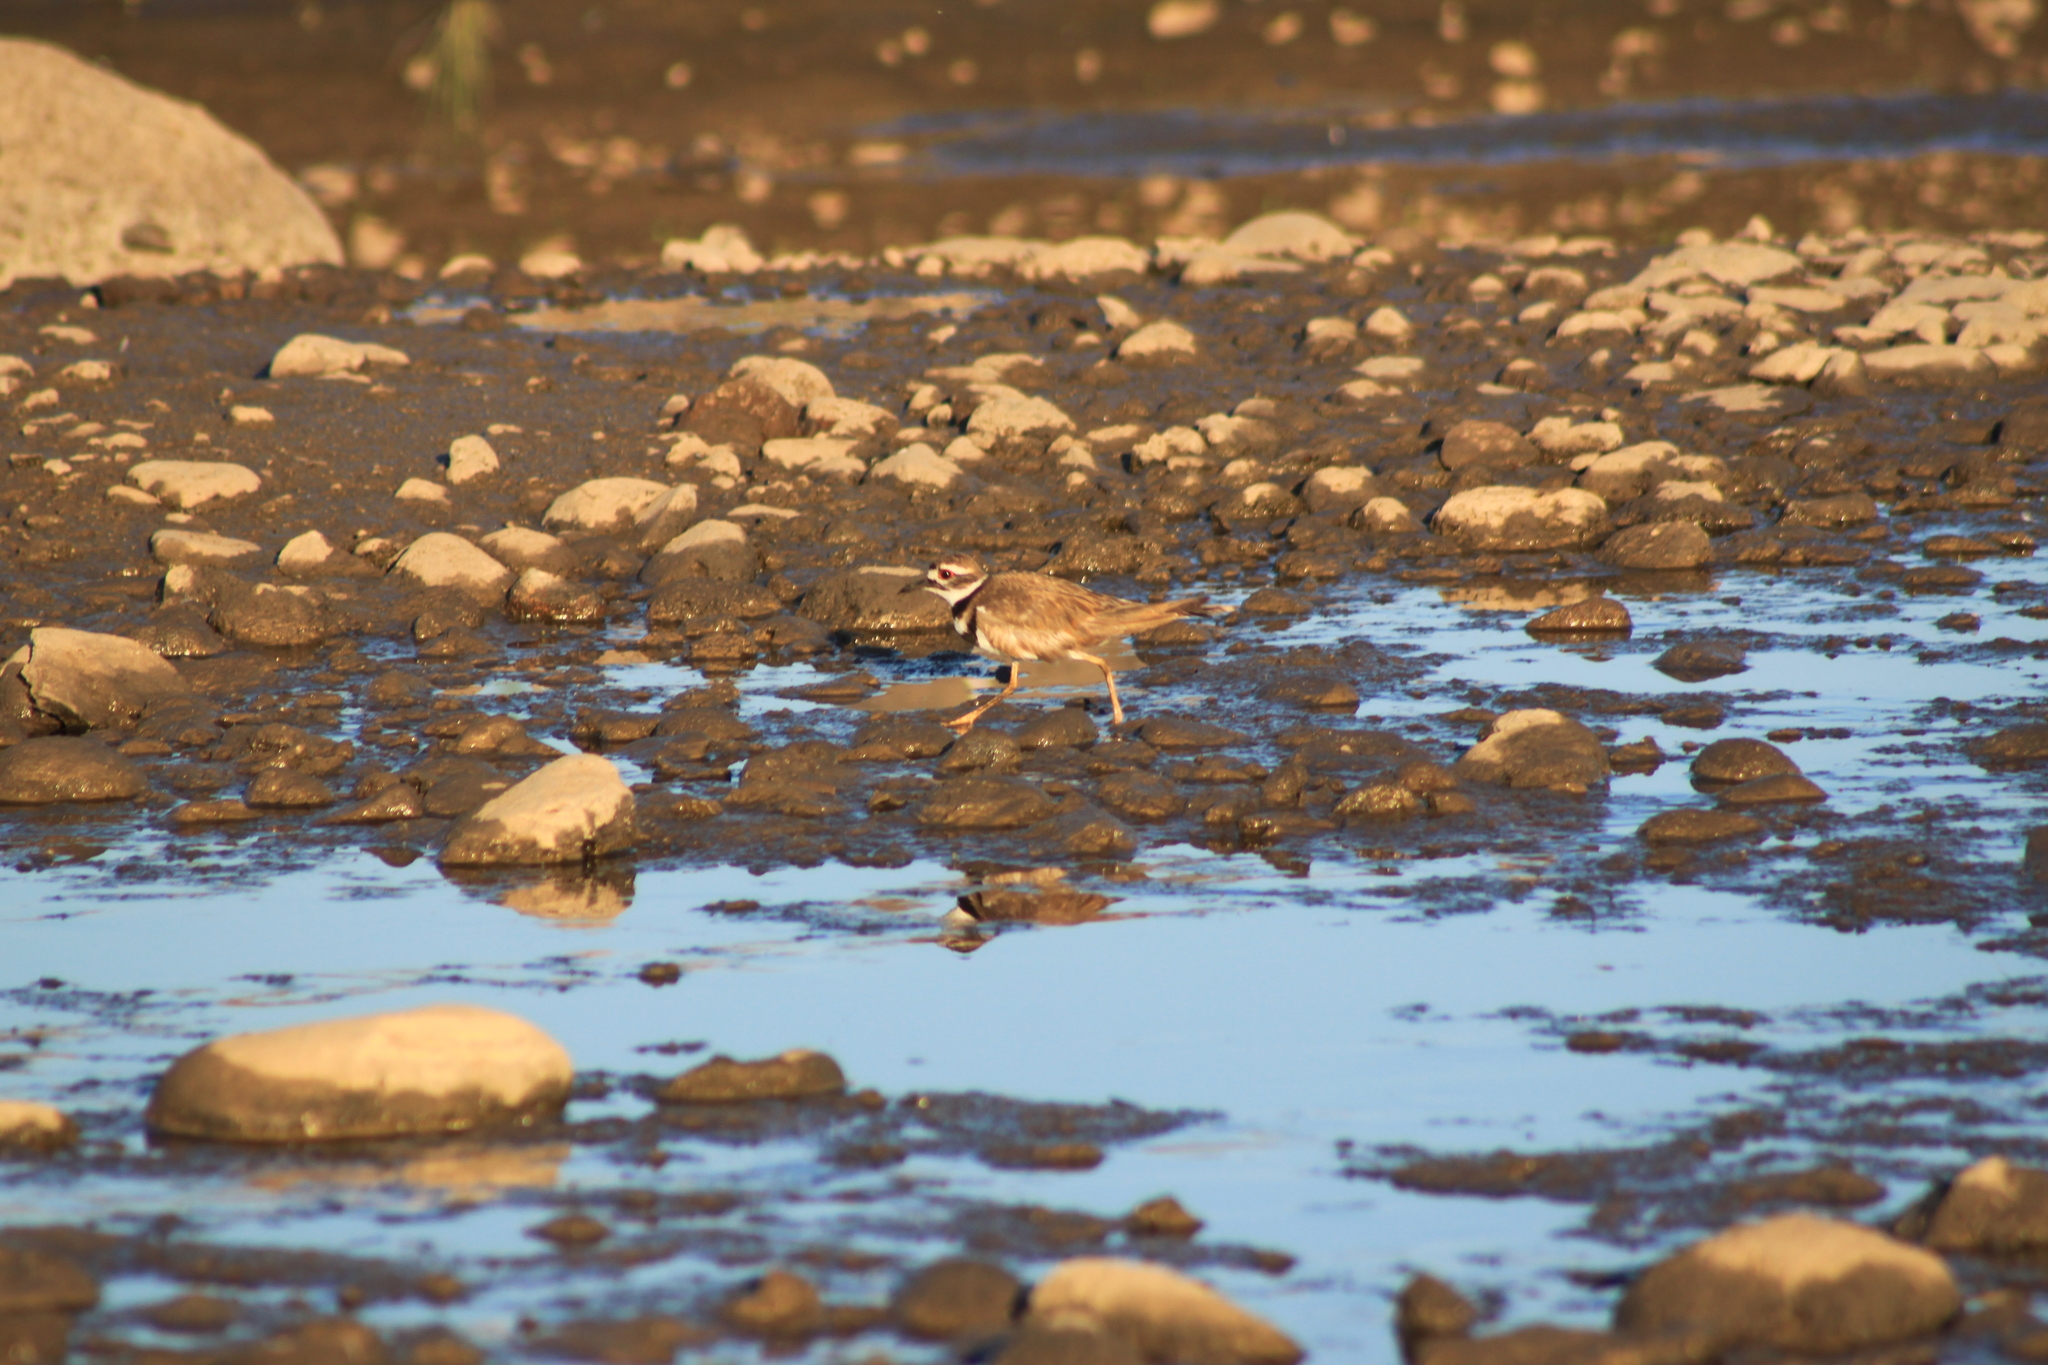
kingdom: Animalia
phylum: Chordata
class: Aves
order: Charadriiformes
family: Charadriidae
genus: Charadrius
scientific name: Charadrius vociferus
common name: Killdeer
